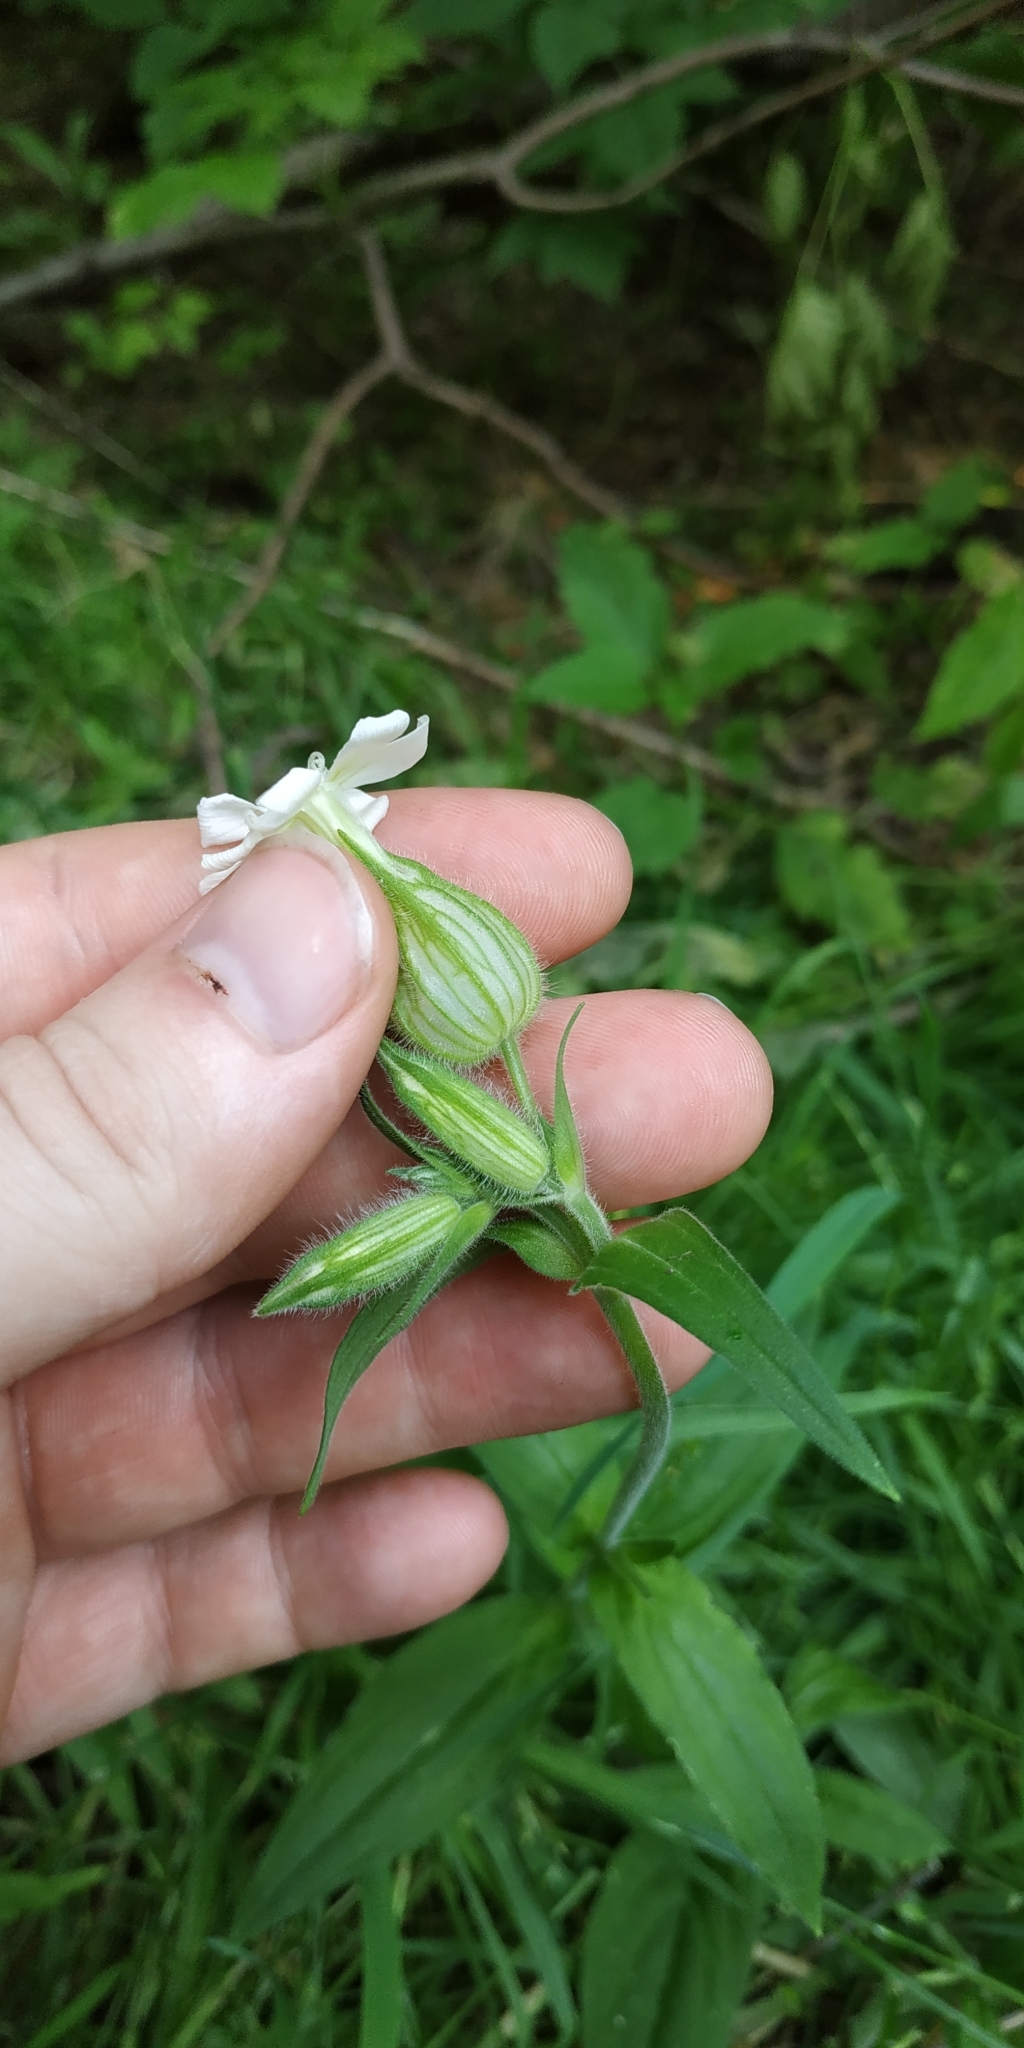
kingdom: Plantae
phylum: Tracheophyta
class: Magnoliopsida
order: Caryophyllales
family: Caryophyllaceae
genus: Silene
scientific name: Silene latifolia
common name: White campion
